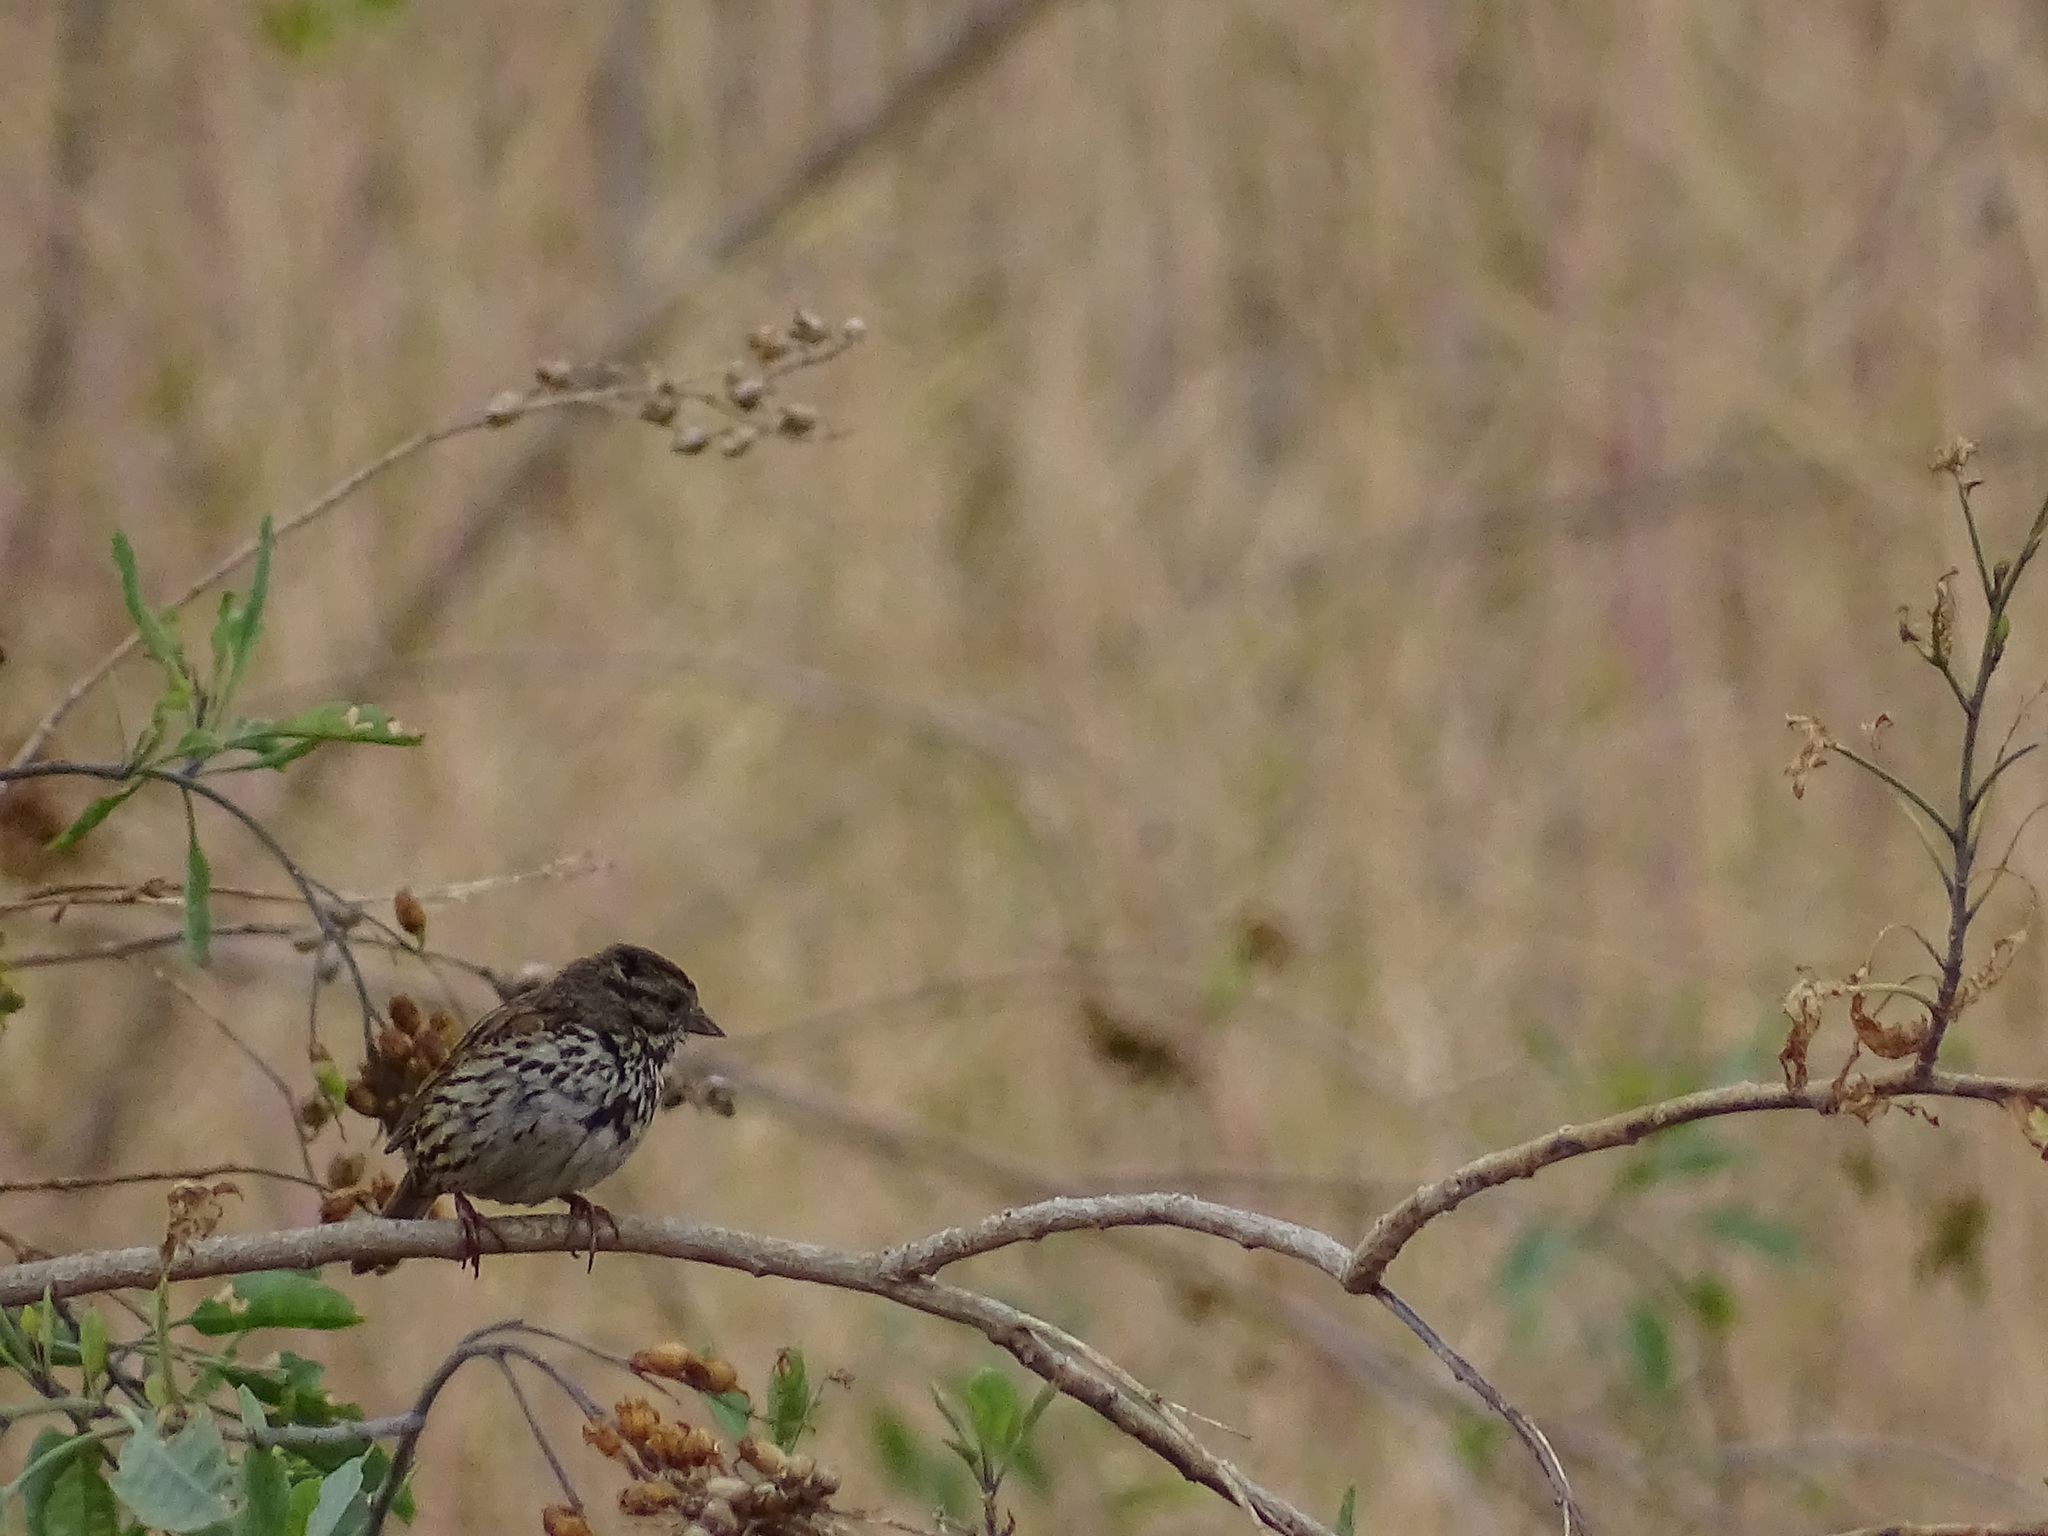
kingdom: Animalia
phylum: Chordata
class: Aves
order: Passeriformes
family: Passerellidae
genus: Melospiza
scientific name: Melospiza melodia
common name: Song sparrow
